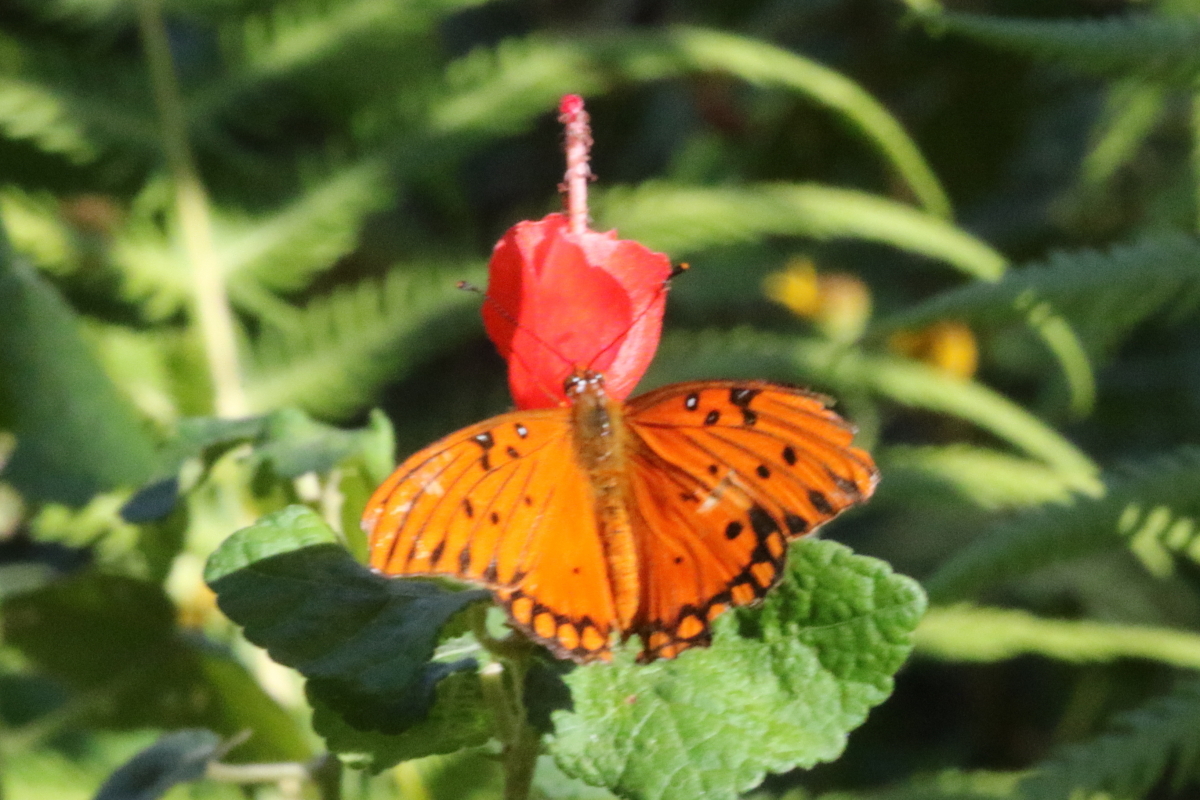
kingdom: Animalia
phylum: Arthropoda
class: Insecta
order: Lepidoptera
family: Nymphalidae
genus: Dione
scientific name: Dione vanillae
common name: Gulf fritillary
